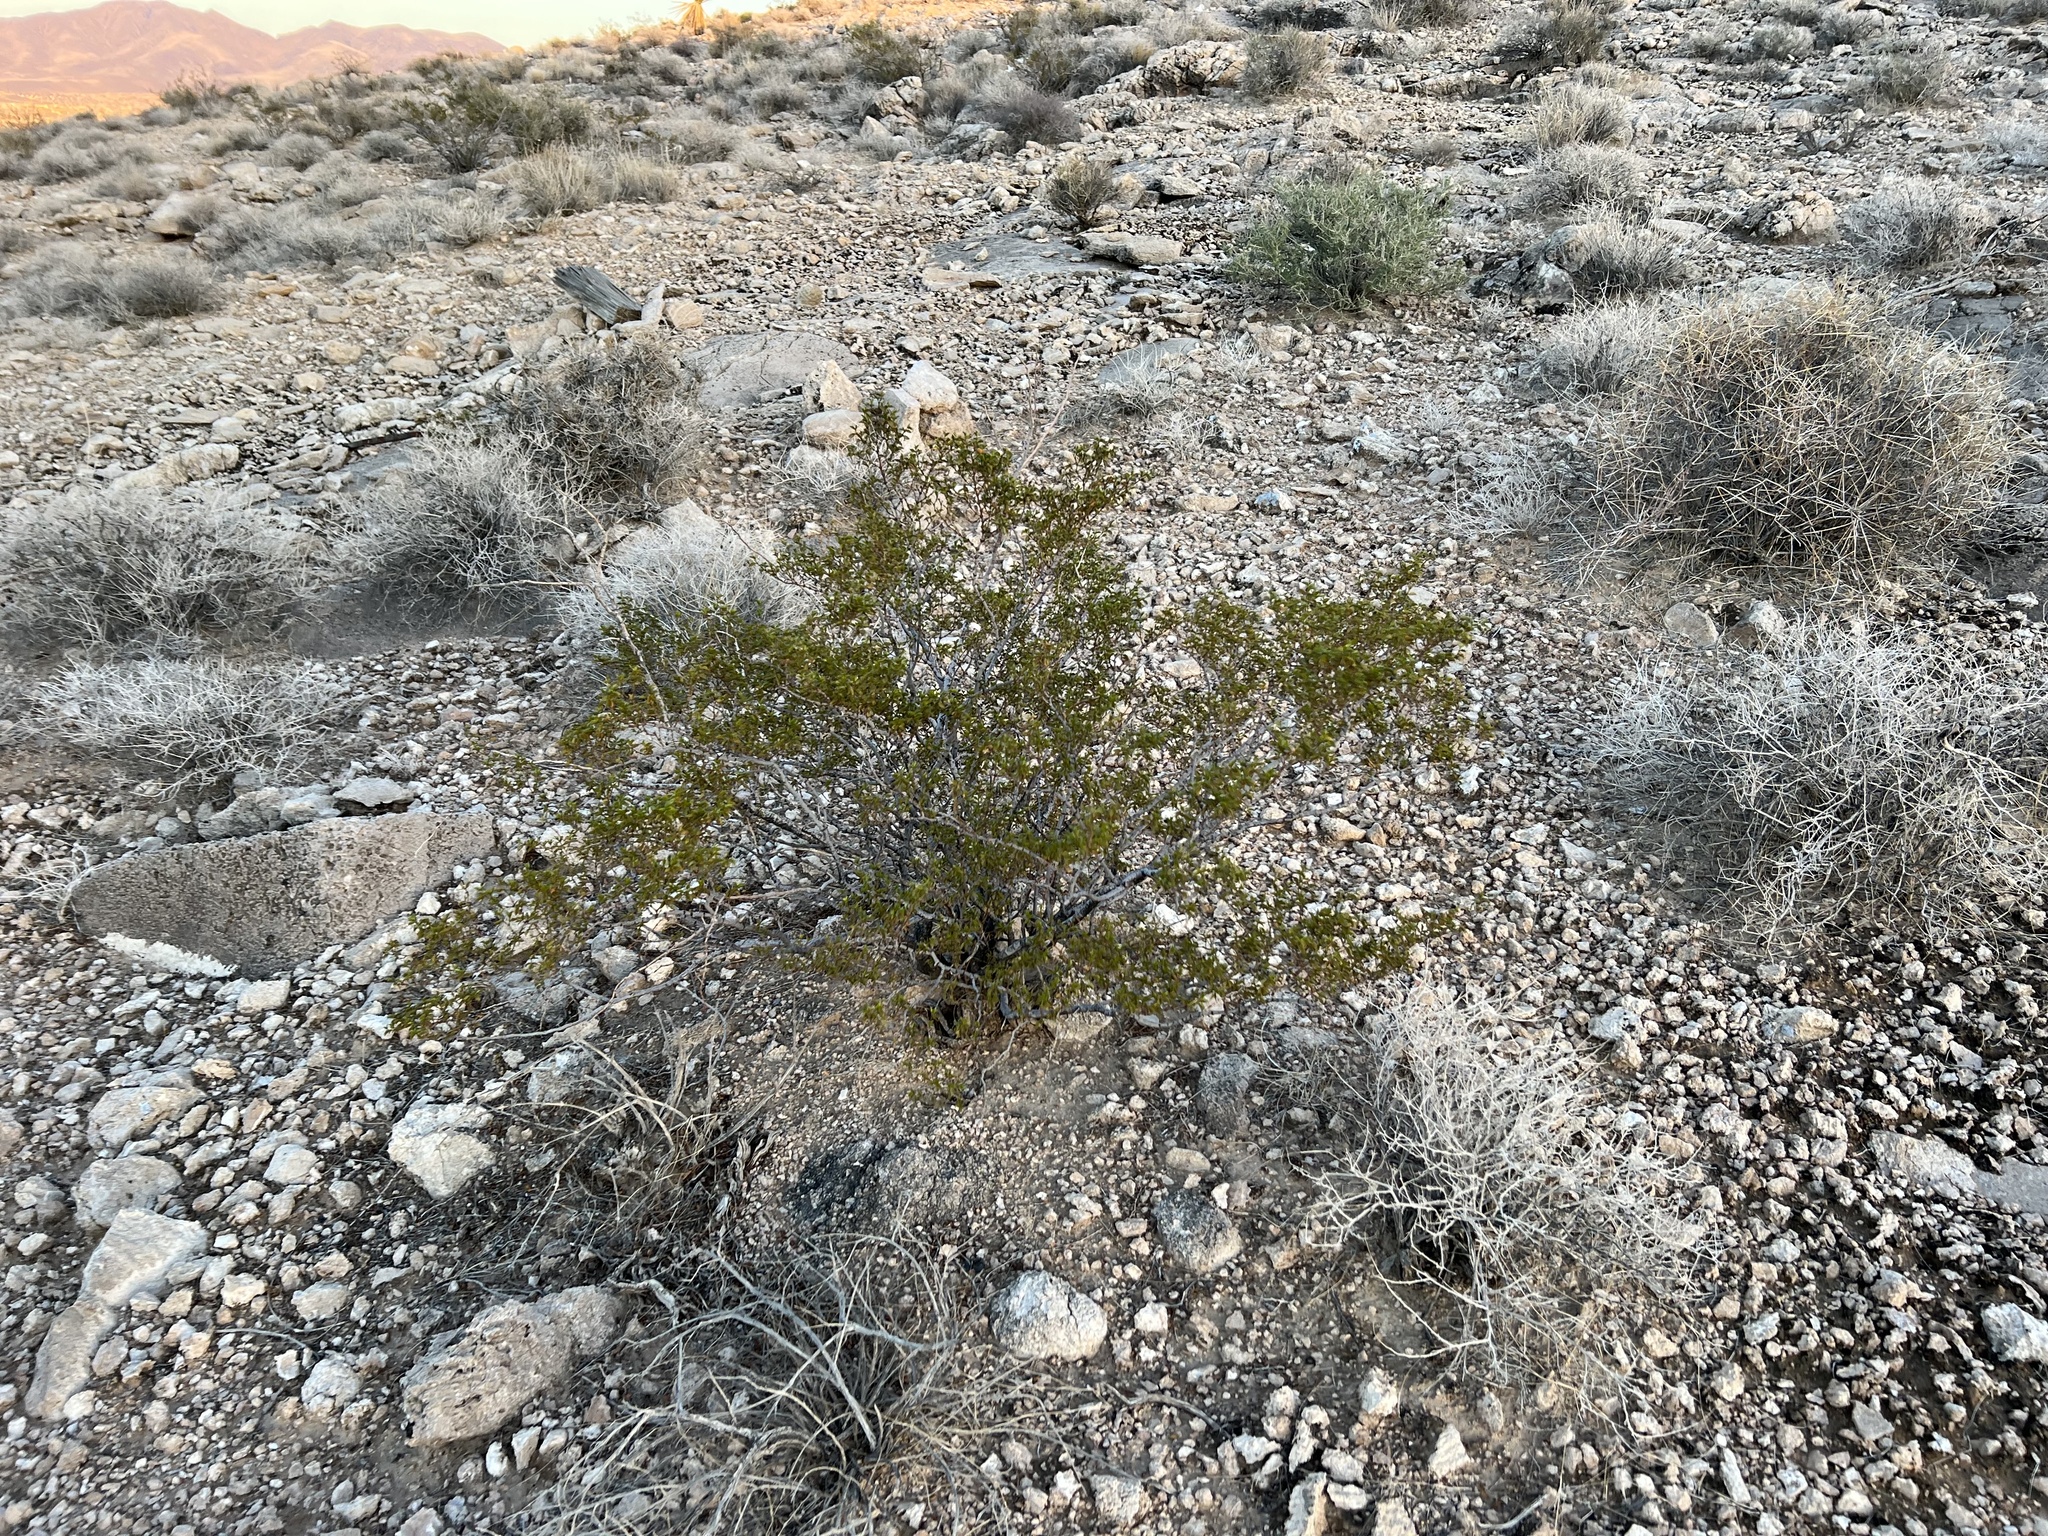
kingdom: Plantae
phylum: Tracheophyta
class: Magnoliopsida
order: Zygophyllales
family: Zygophyllaceae
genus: Larrea
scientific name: Larrea tridentata
